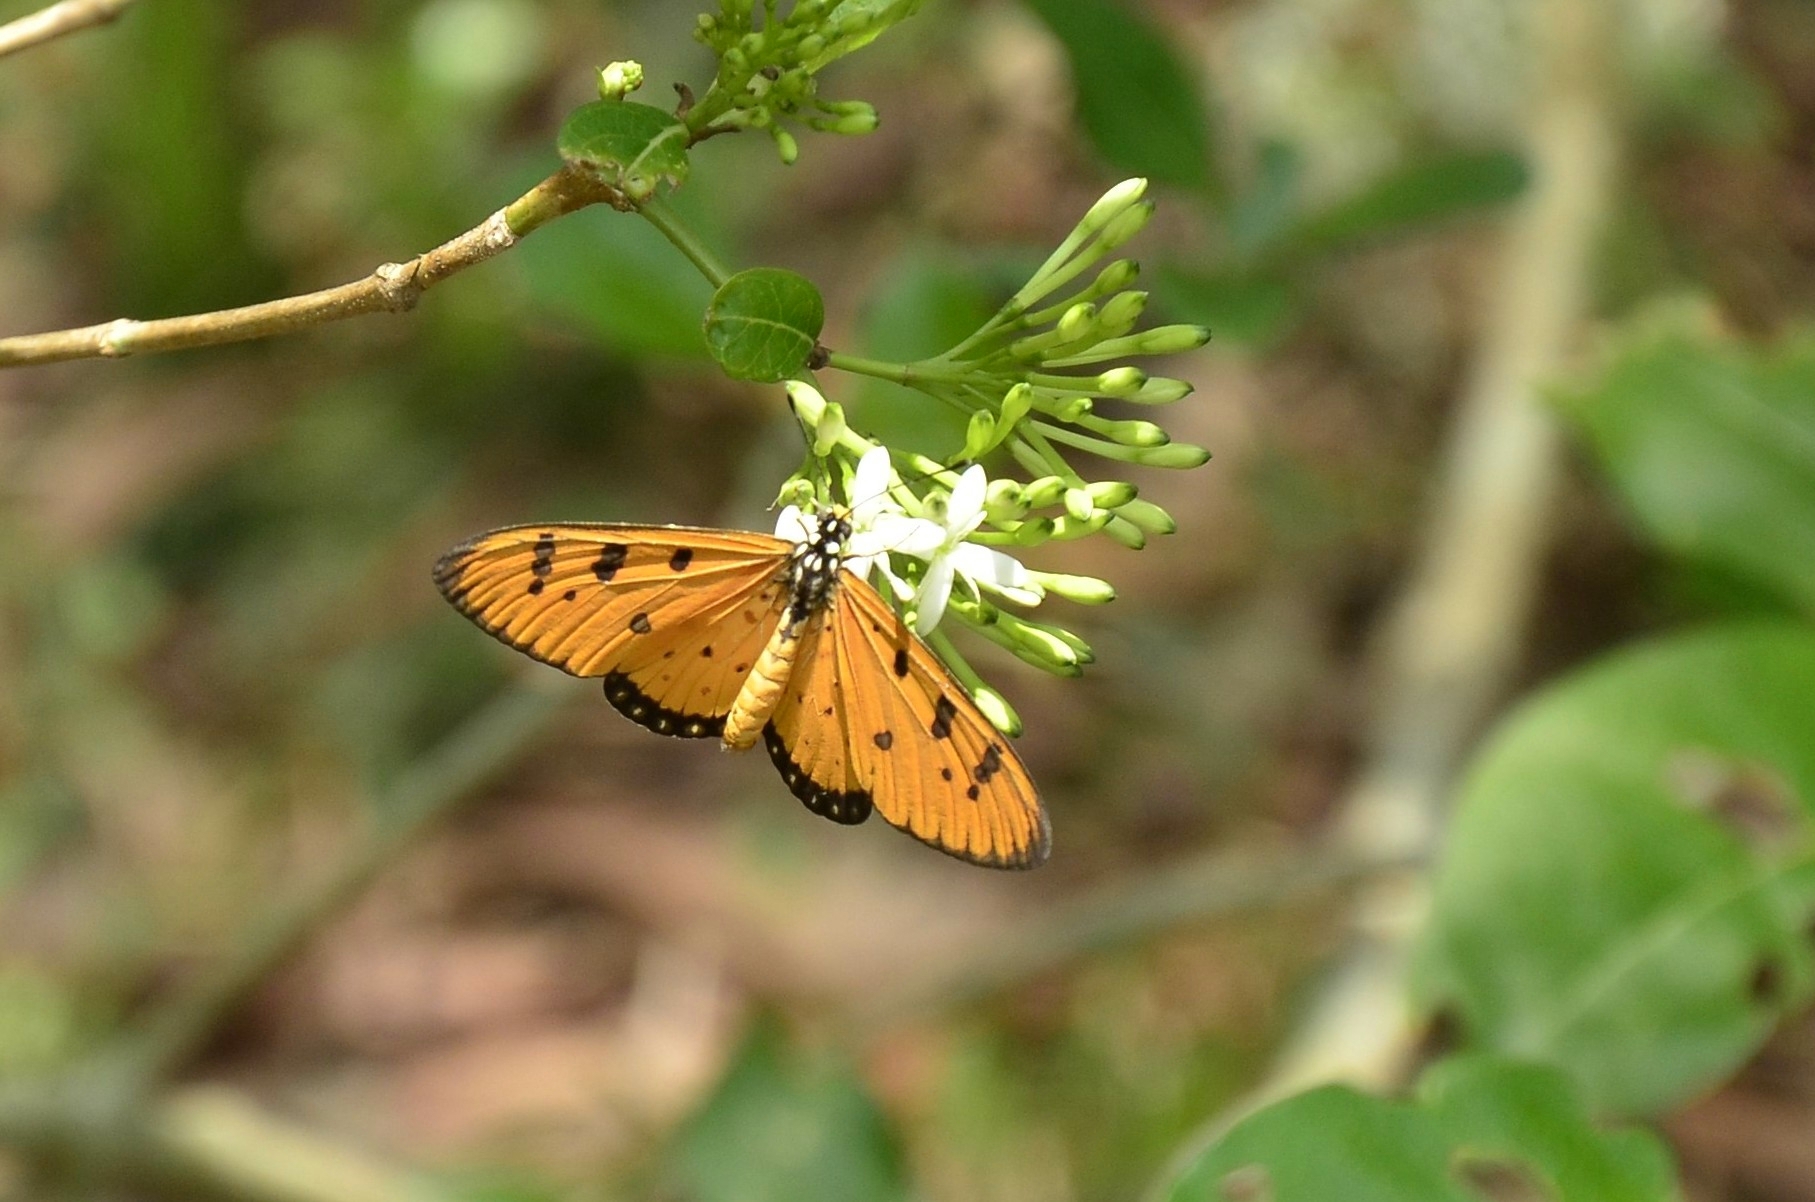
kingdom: Animalia
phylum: Arthropoda
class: Insecta
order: Lepidoptera
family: Nymphalidae
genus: Acraea
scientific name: Acraea terpsicore
